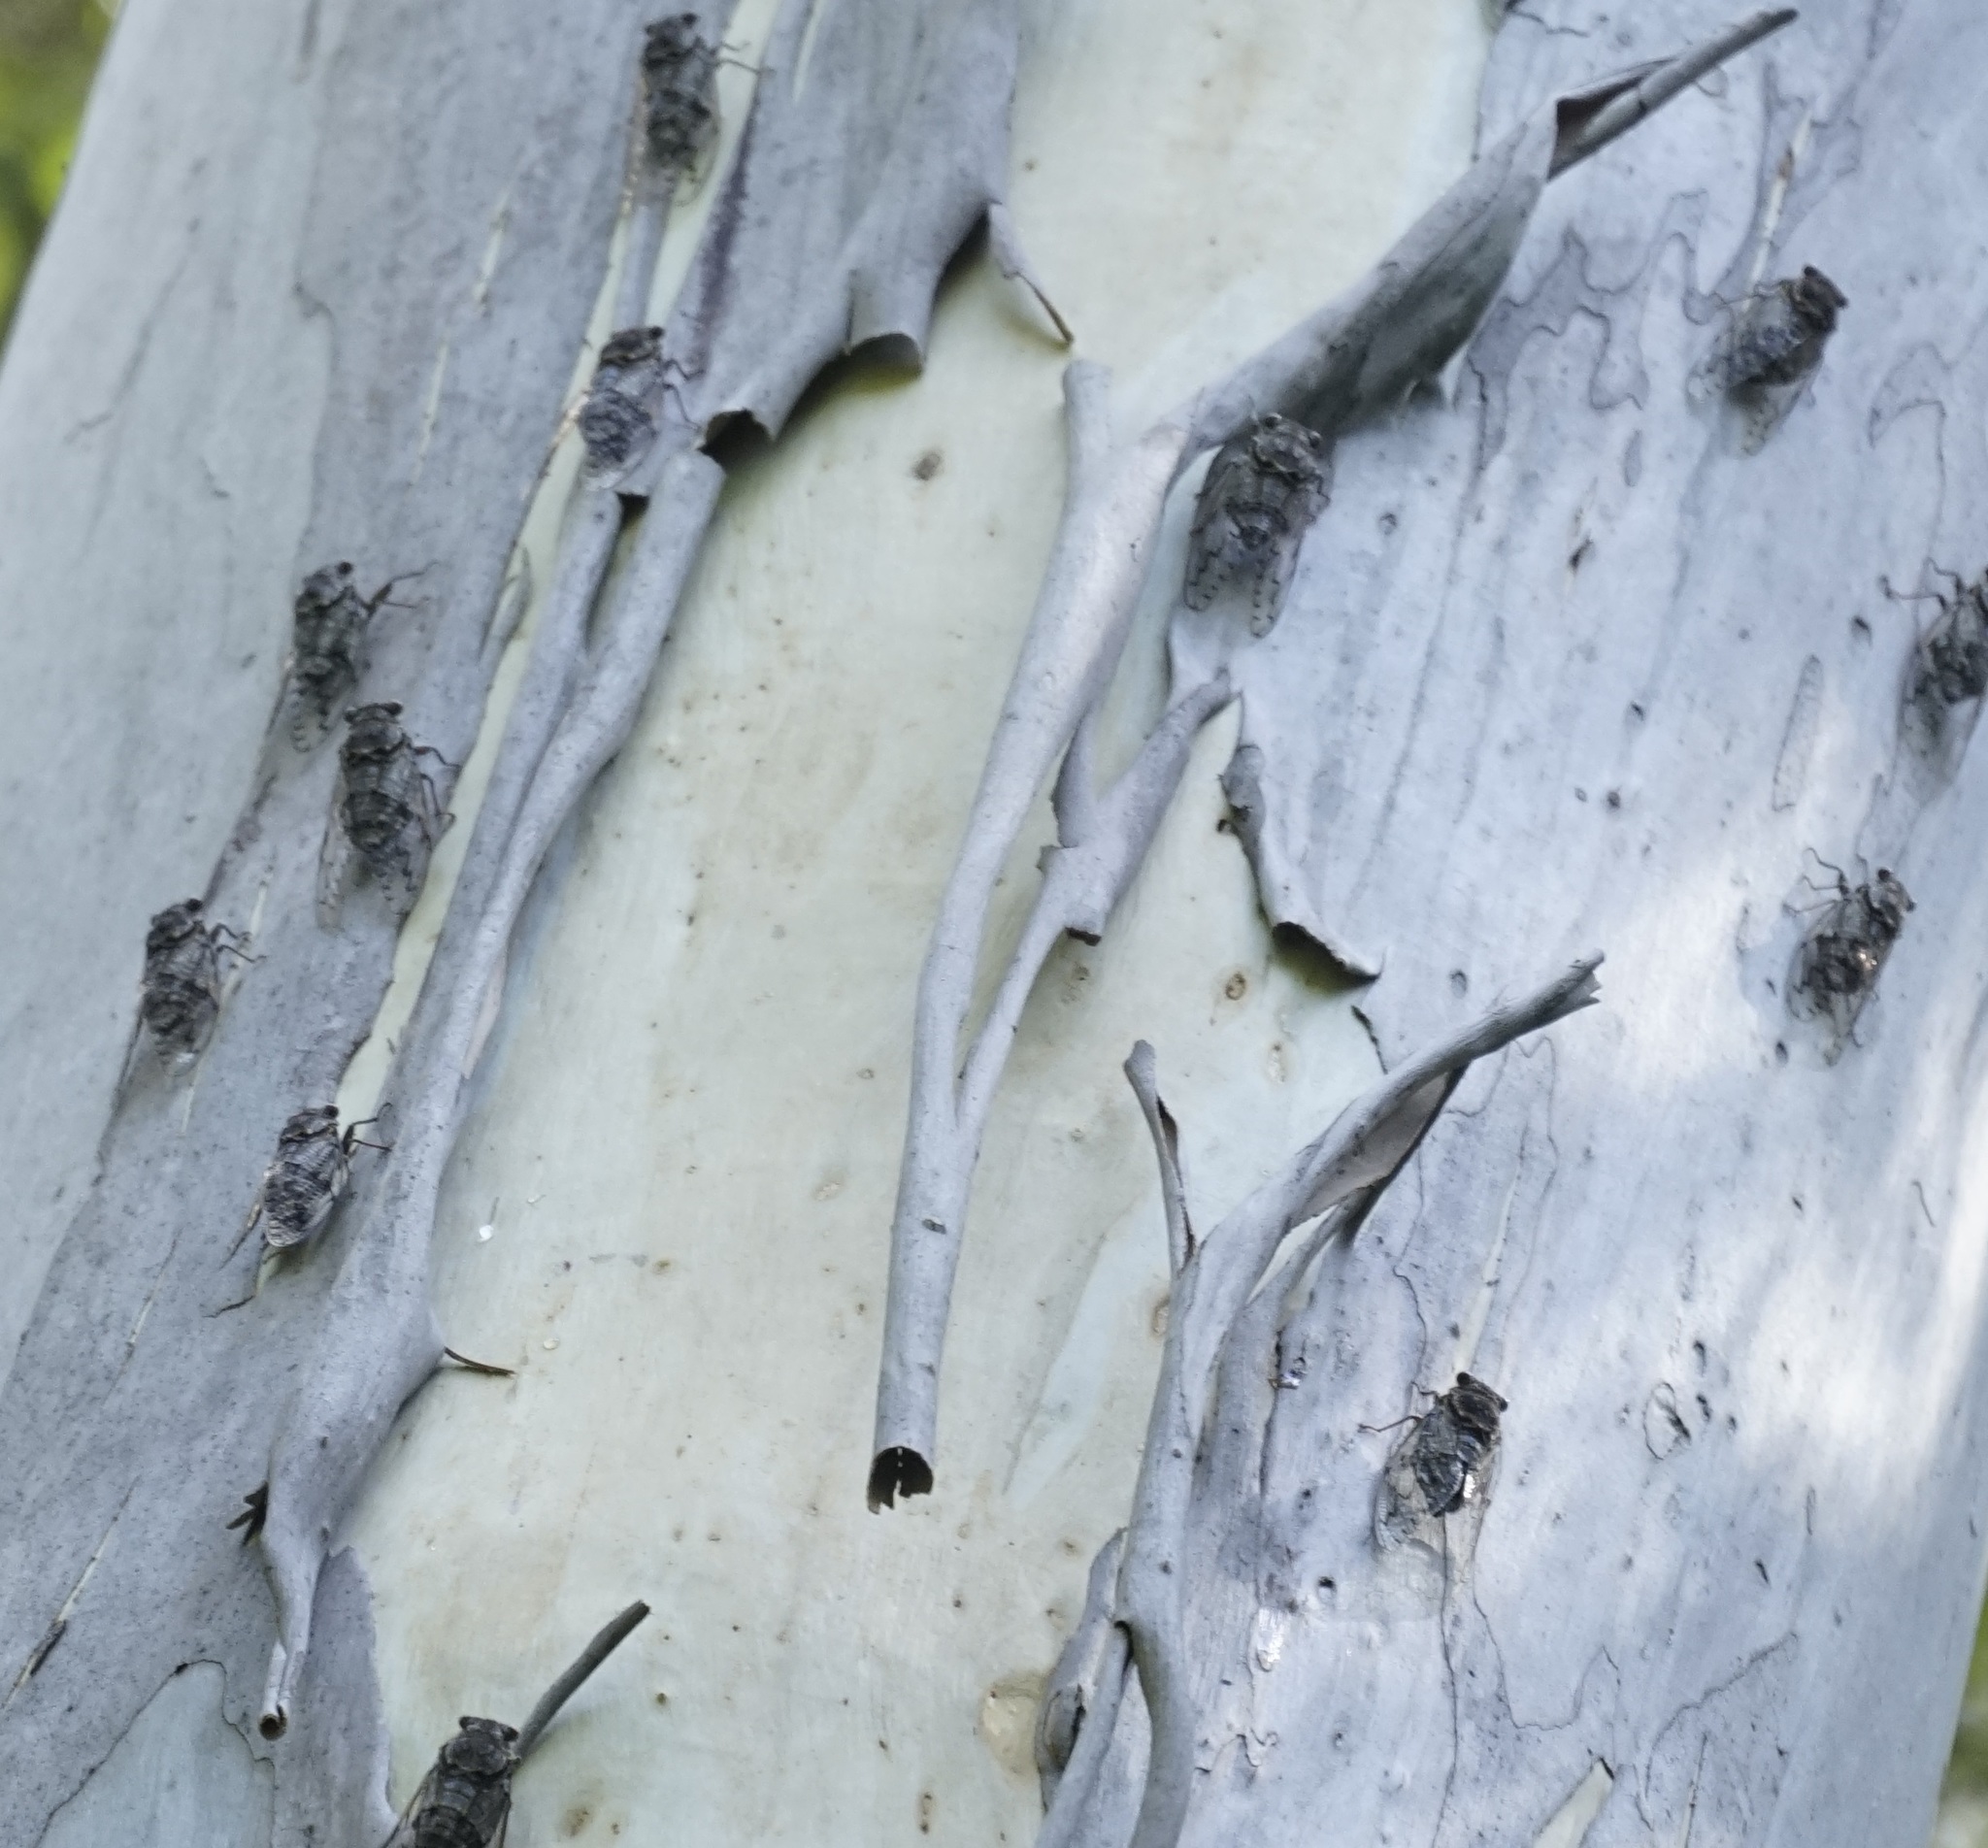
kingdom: Animalia
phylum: Arthropoda
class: Insecta
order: Hemiptera
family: Cicadidae
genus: Henicopsaltria
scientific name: Henicopsaltria eydouxii
